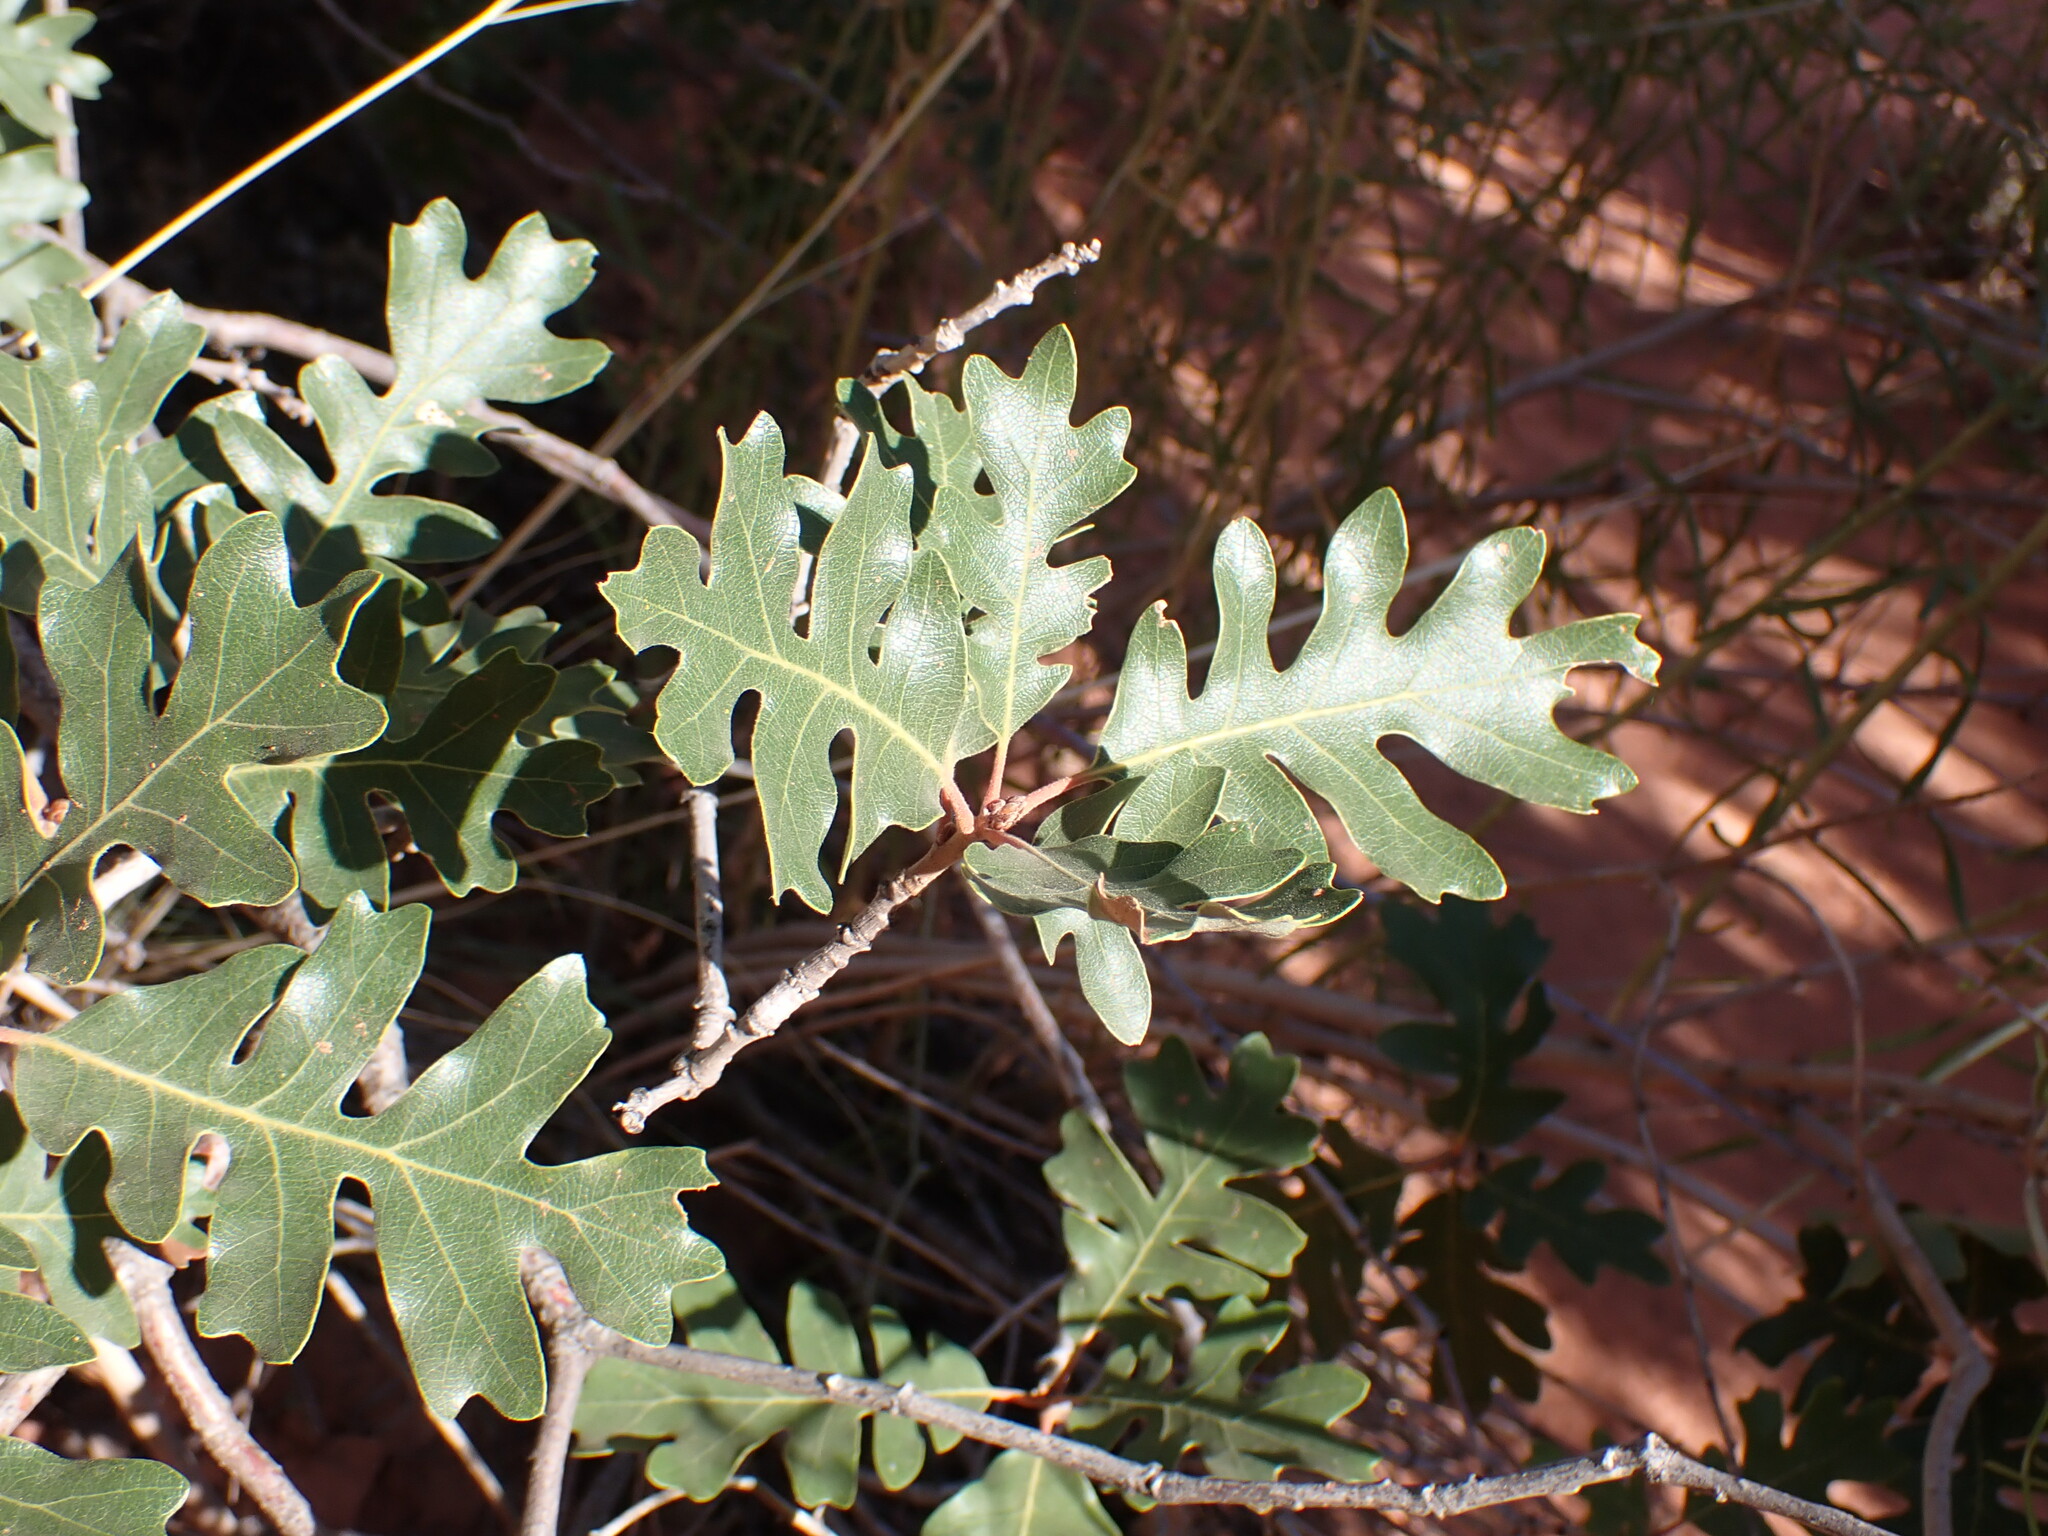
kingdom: Plantae
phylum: Tracheophyta
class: Magnoliopsida
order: Fagales
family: Fagaceae
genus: Quercus
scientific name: Quercus gambelii
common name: Gambel oak
